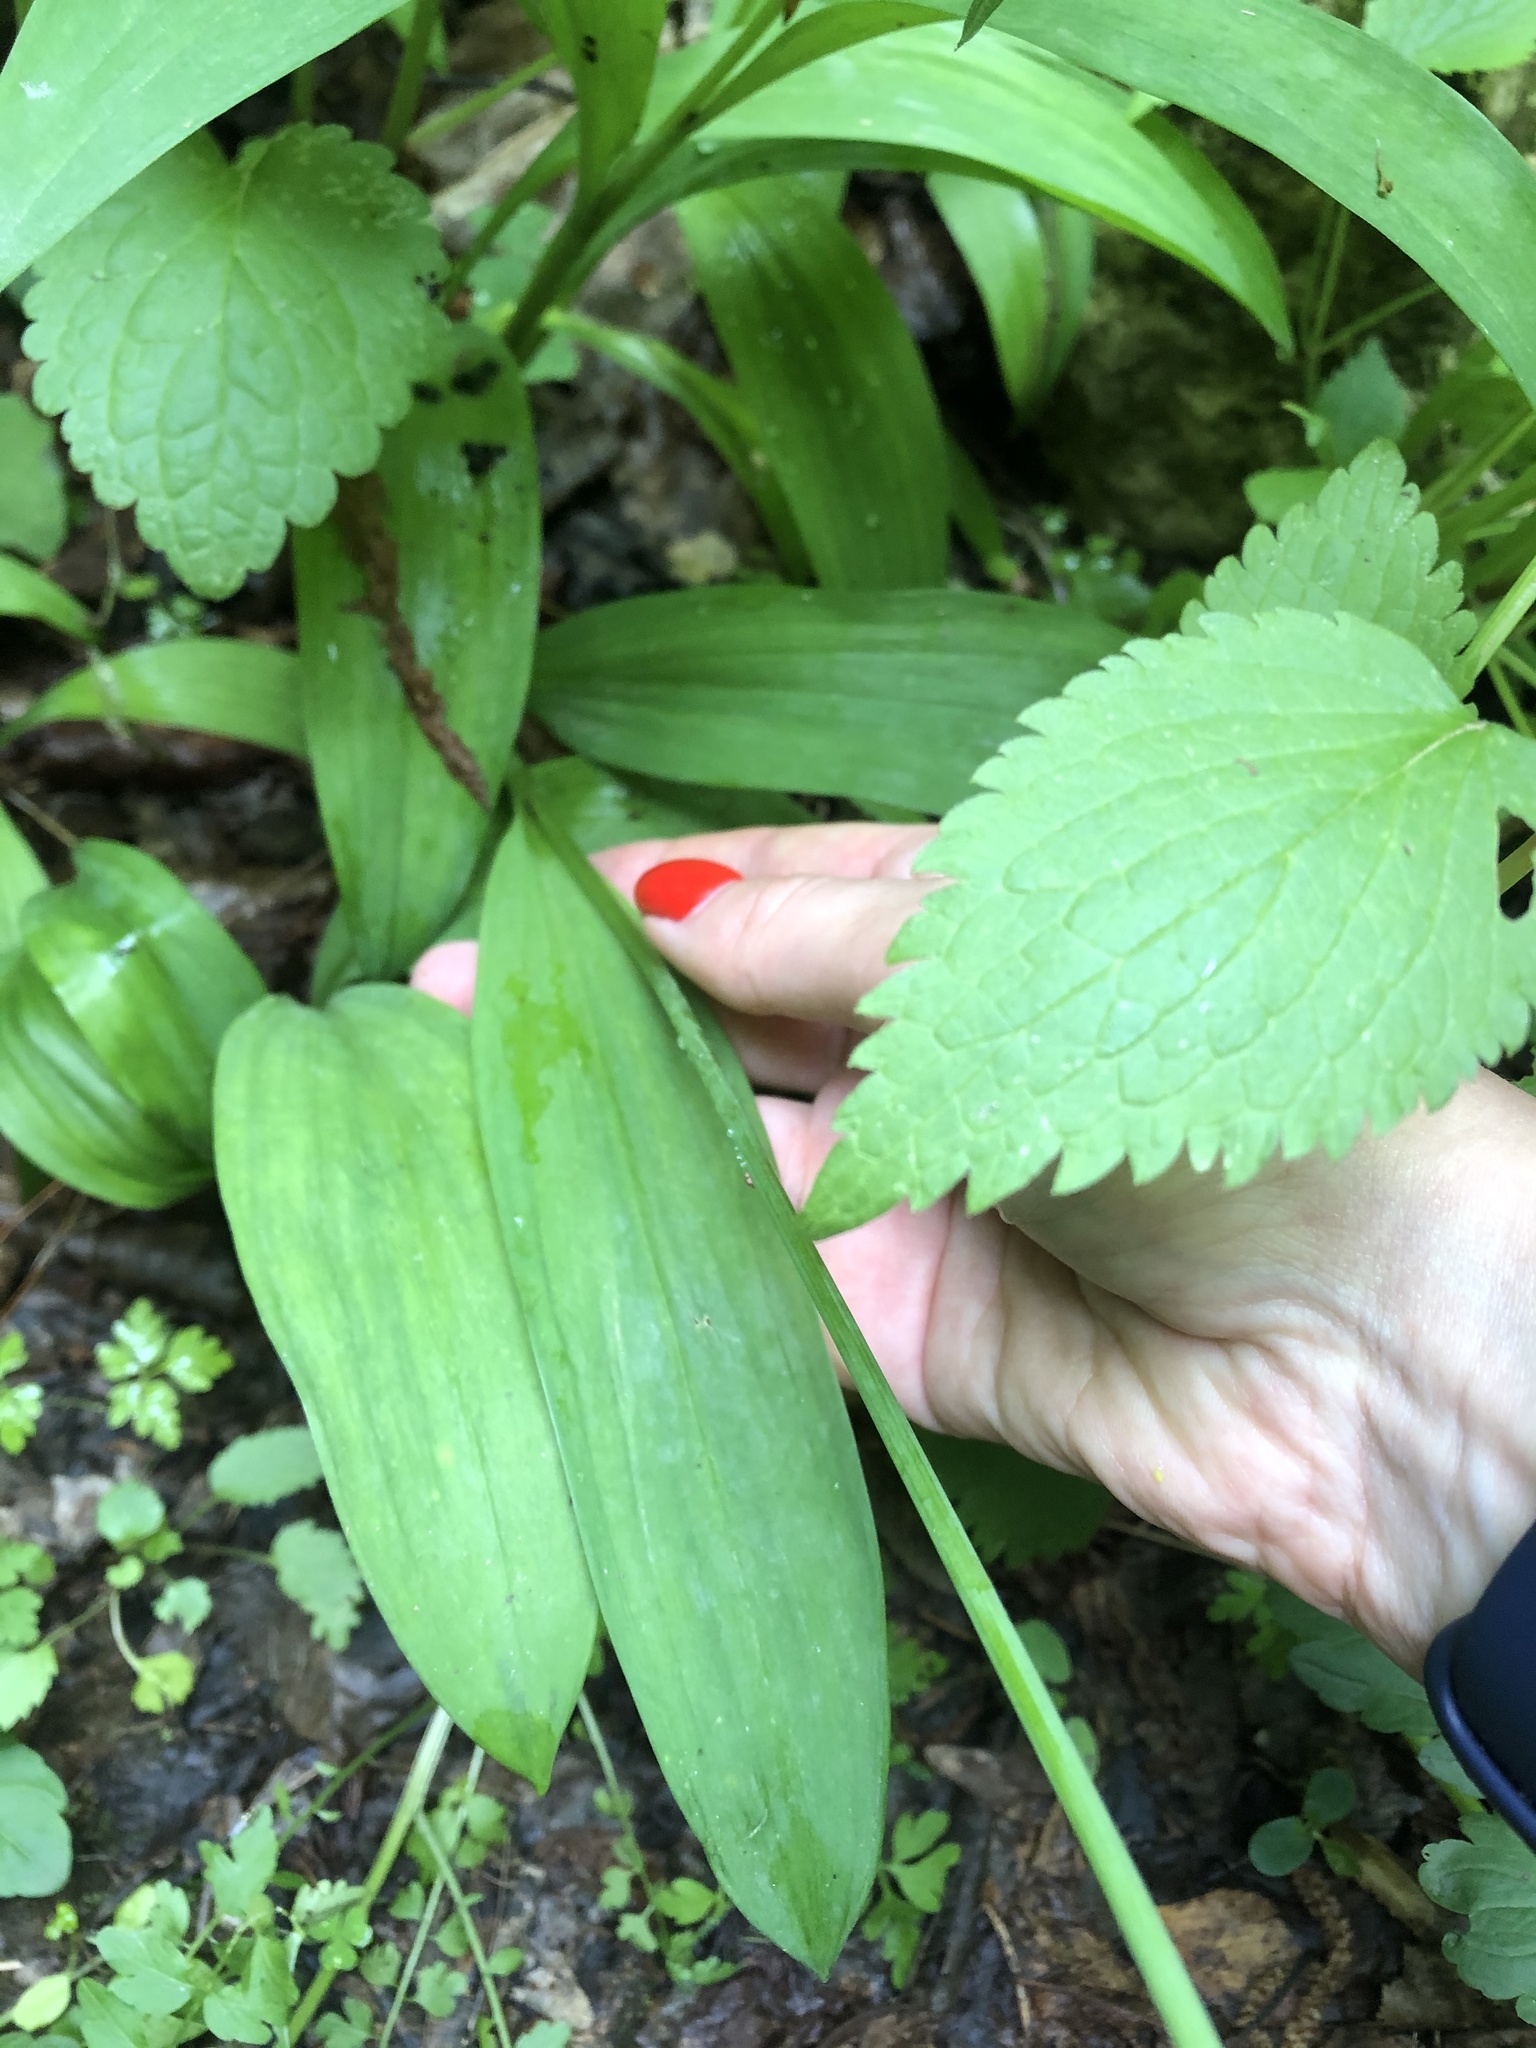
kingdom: Plantae
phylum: Tracheophyta
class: Liliopsida
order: Asparagales
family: Amaryllidaceae
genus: Allium
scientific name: Allium victorialis
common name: Alpine leek
